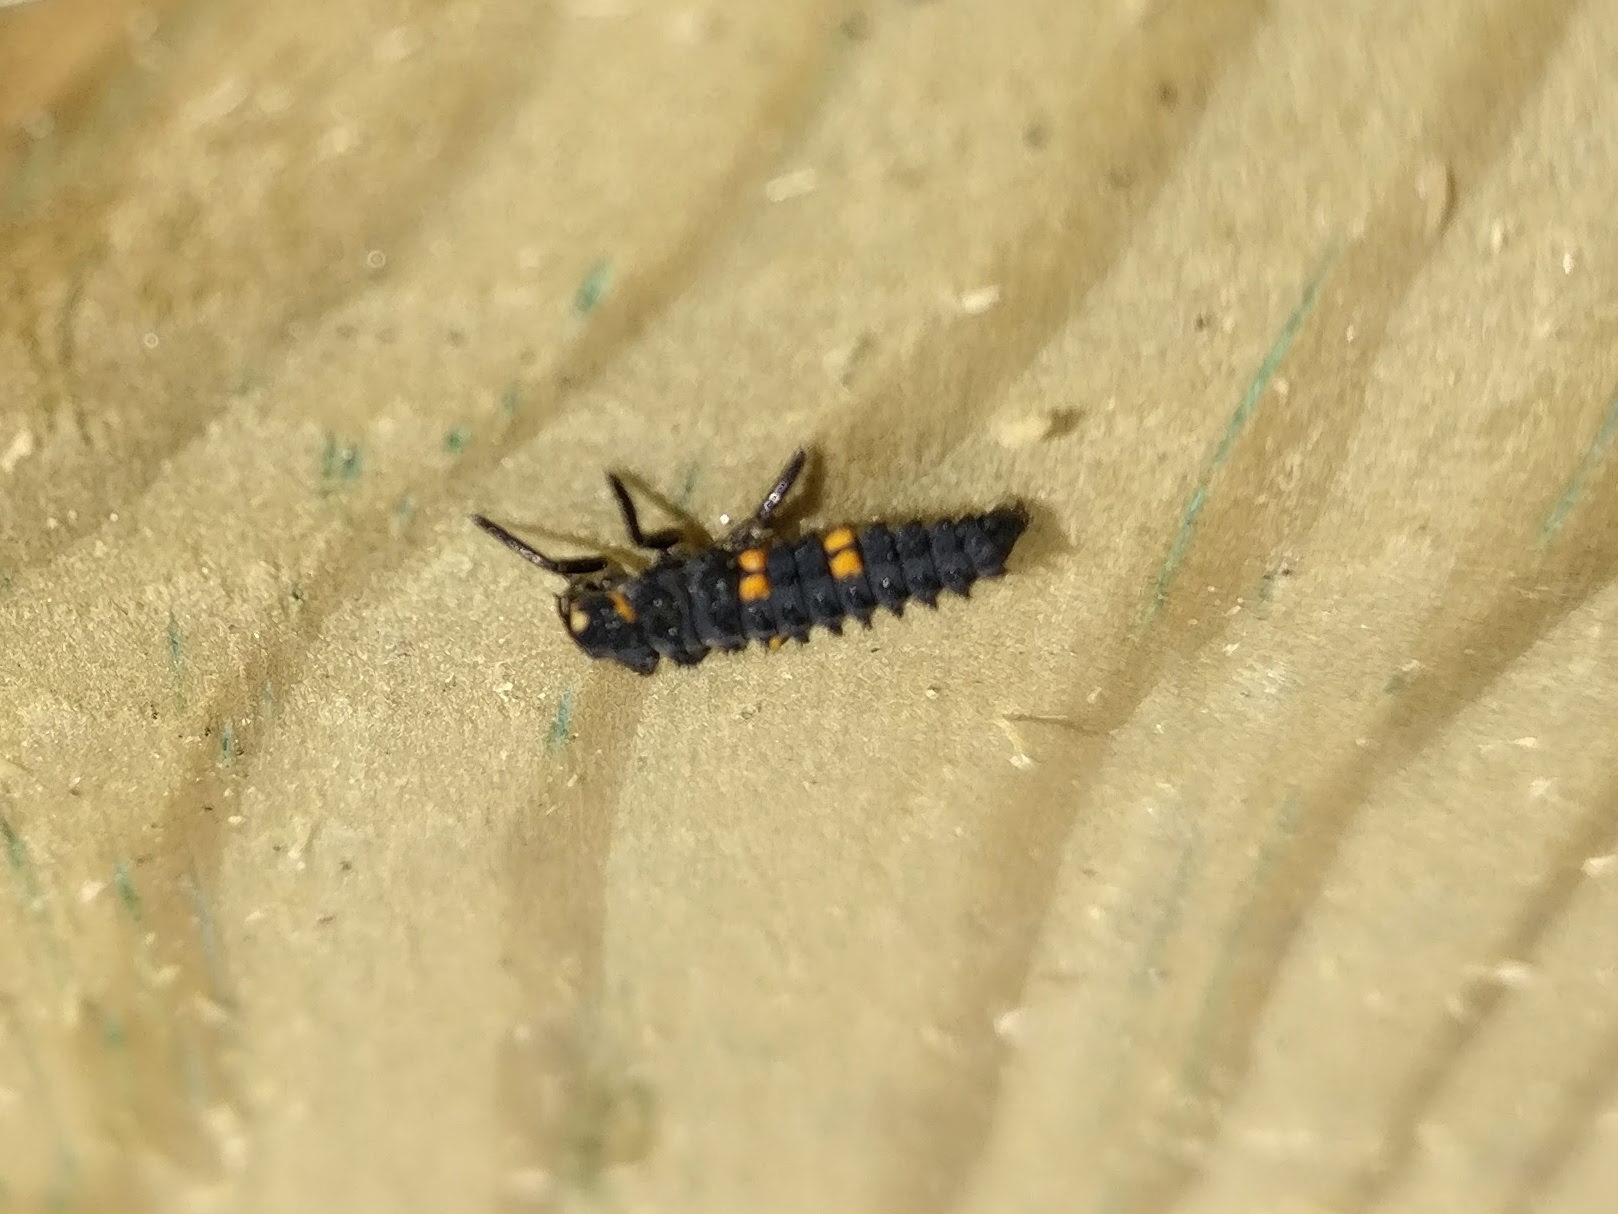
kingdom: Animalia
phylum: Arthropoda
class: Insecta
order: Coleoptera
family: Coccinellidae
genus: Coccinella
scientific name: Coccinella septempunctata
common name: Sevenspotted lady beetle
